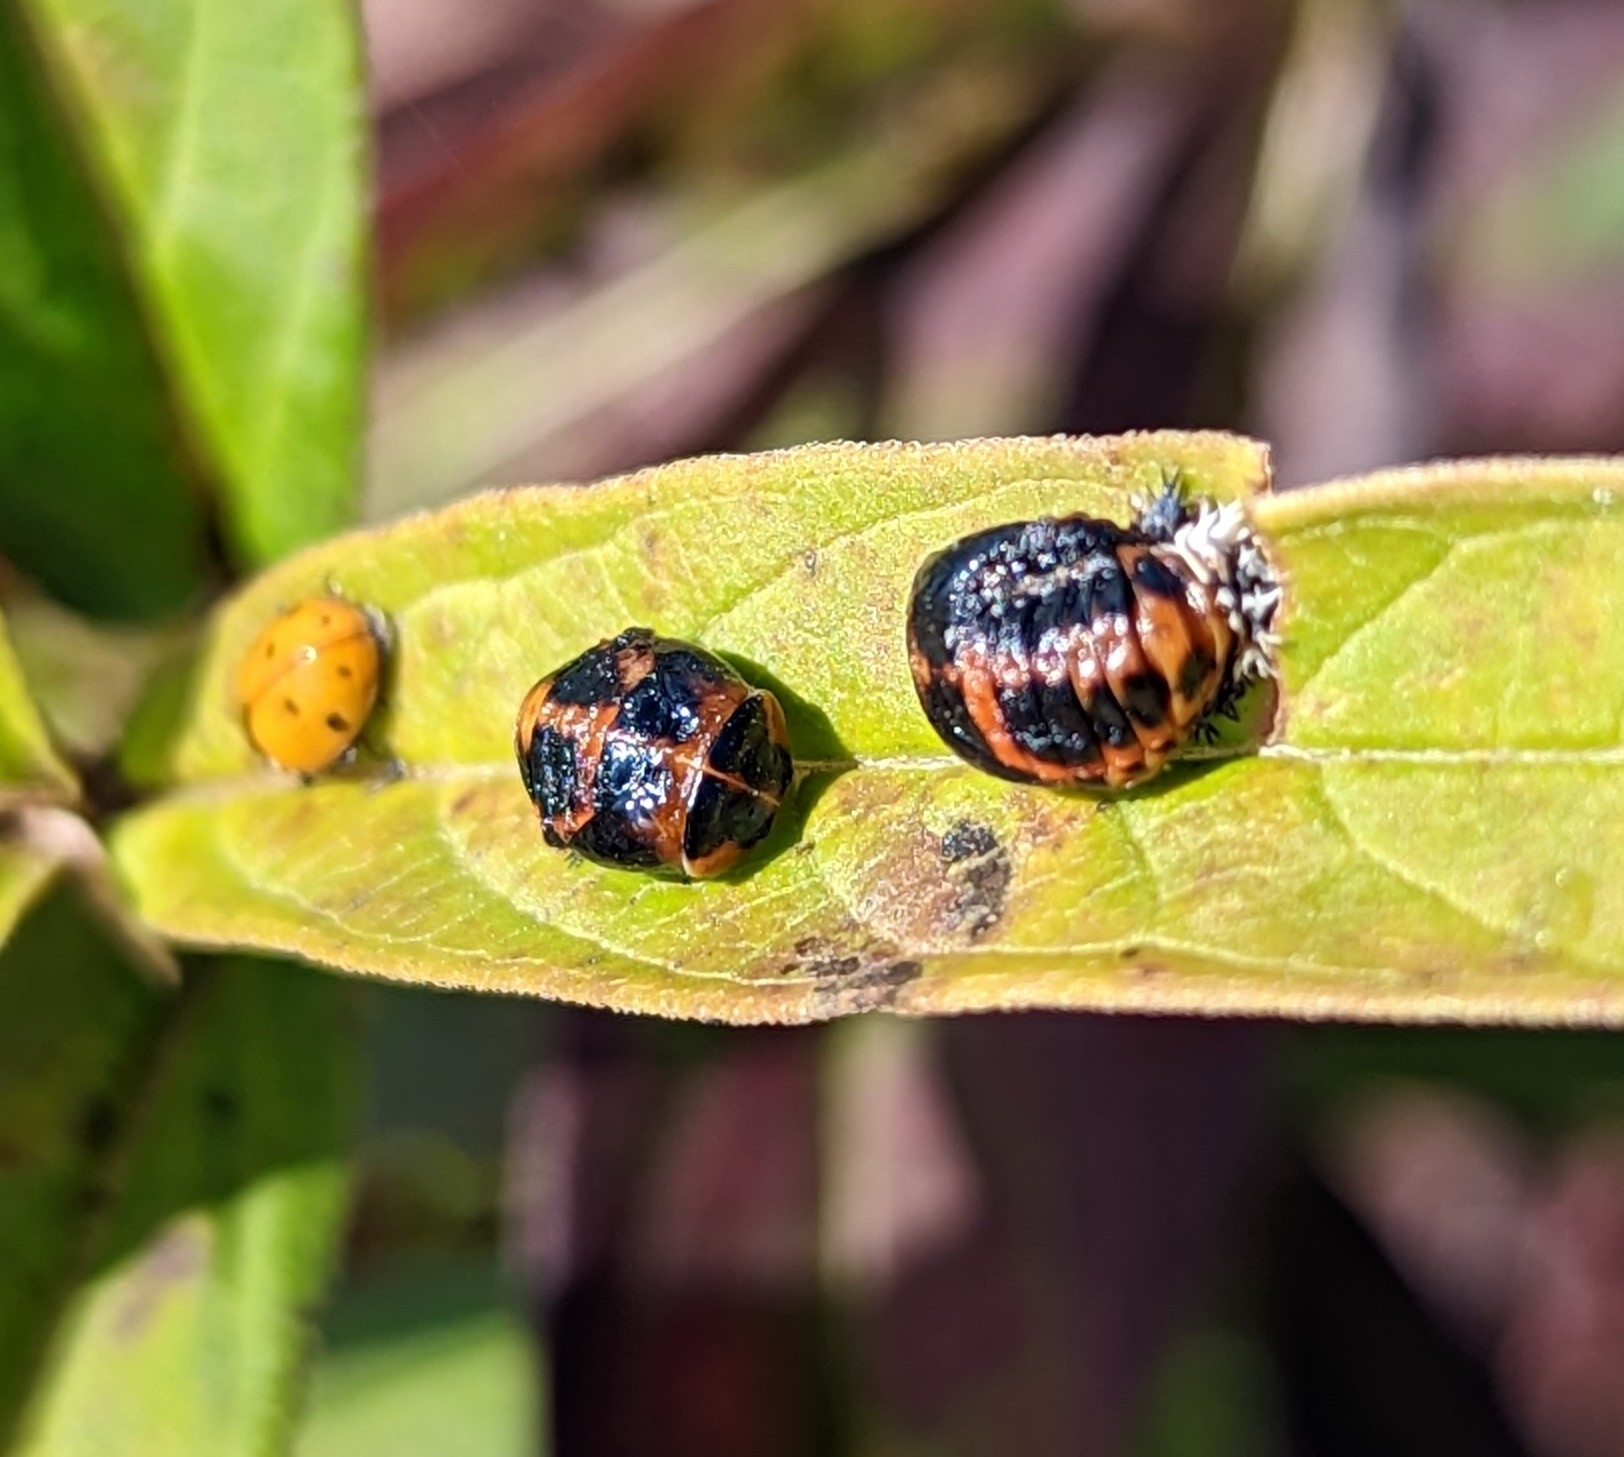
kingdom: Animalia
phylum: Arthropoda
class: Insecta
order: Coleoptera
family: Coccinellidae
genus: Harmonia
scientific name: Harmonia axyridis
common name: Harlequin ladybird
